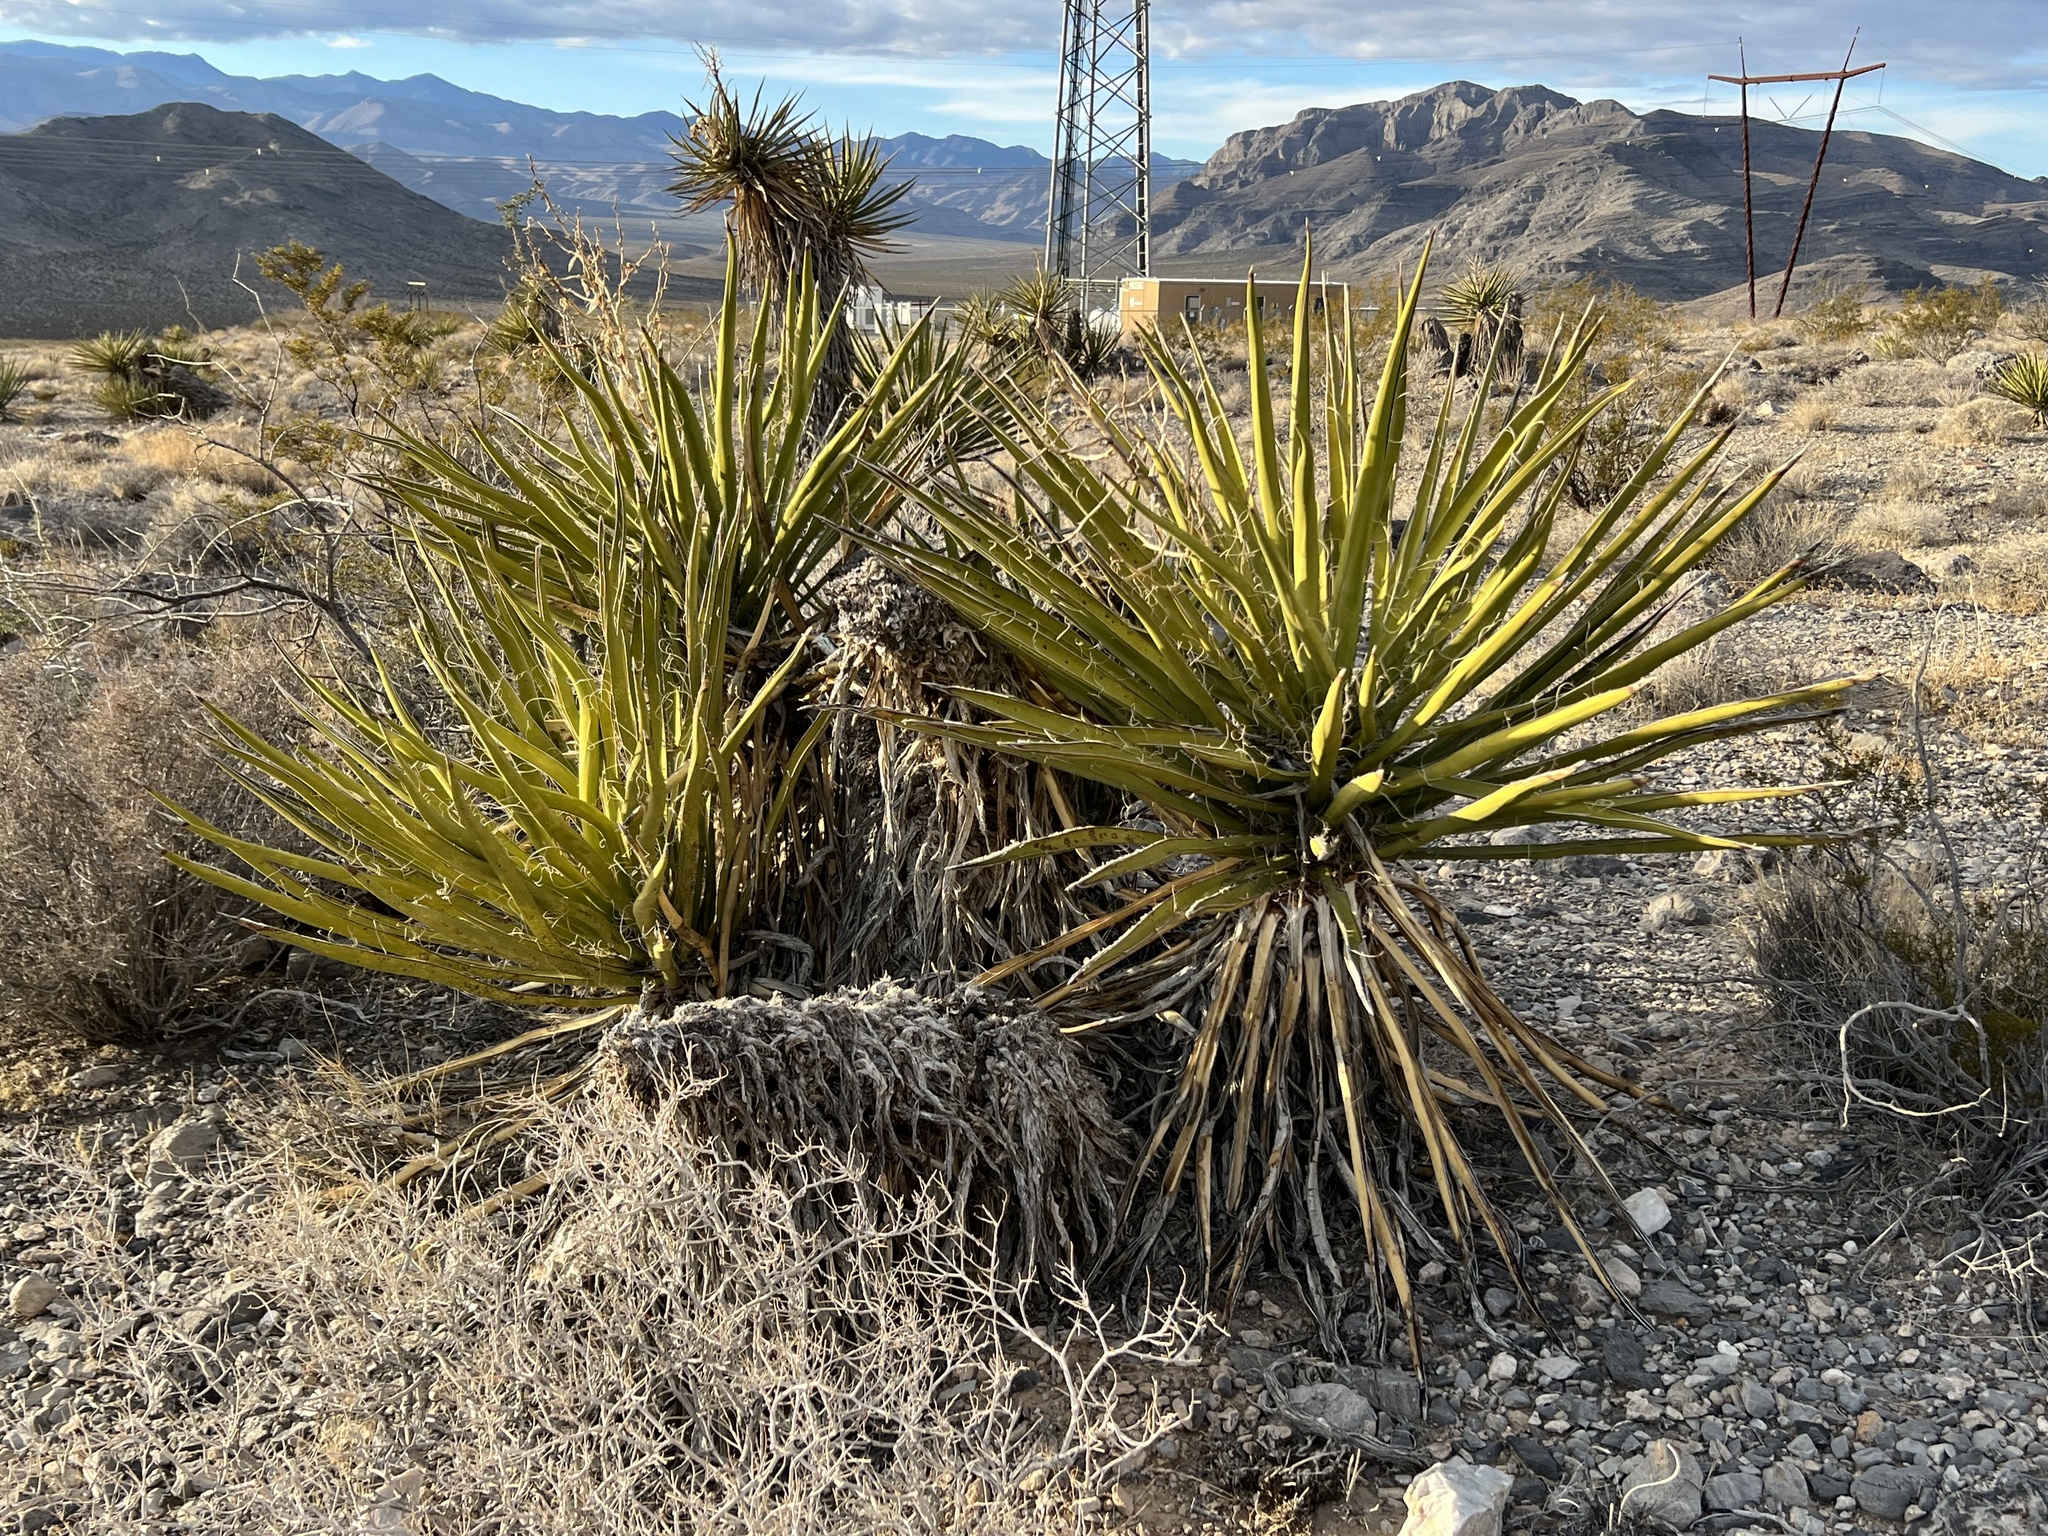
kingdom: Plantae
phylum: Tracheophyta
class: Liliopsida
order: Asparagales
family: Asparagaceae
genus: Yucca
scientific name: Yucca schidigera
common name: Mojave yucca
